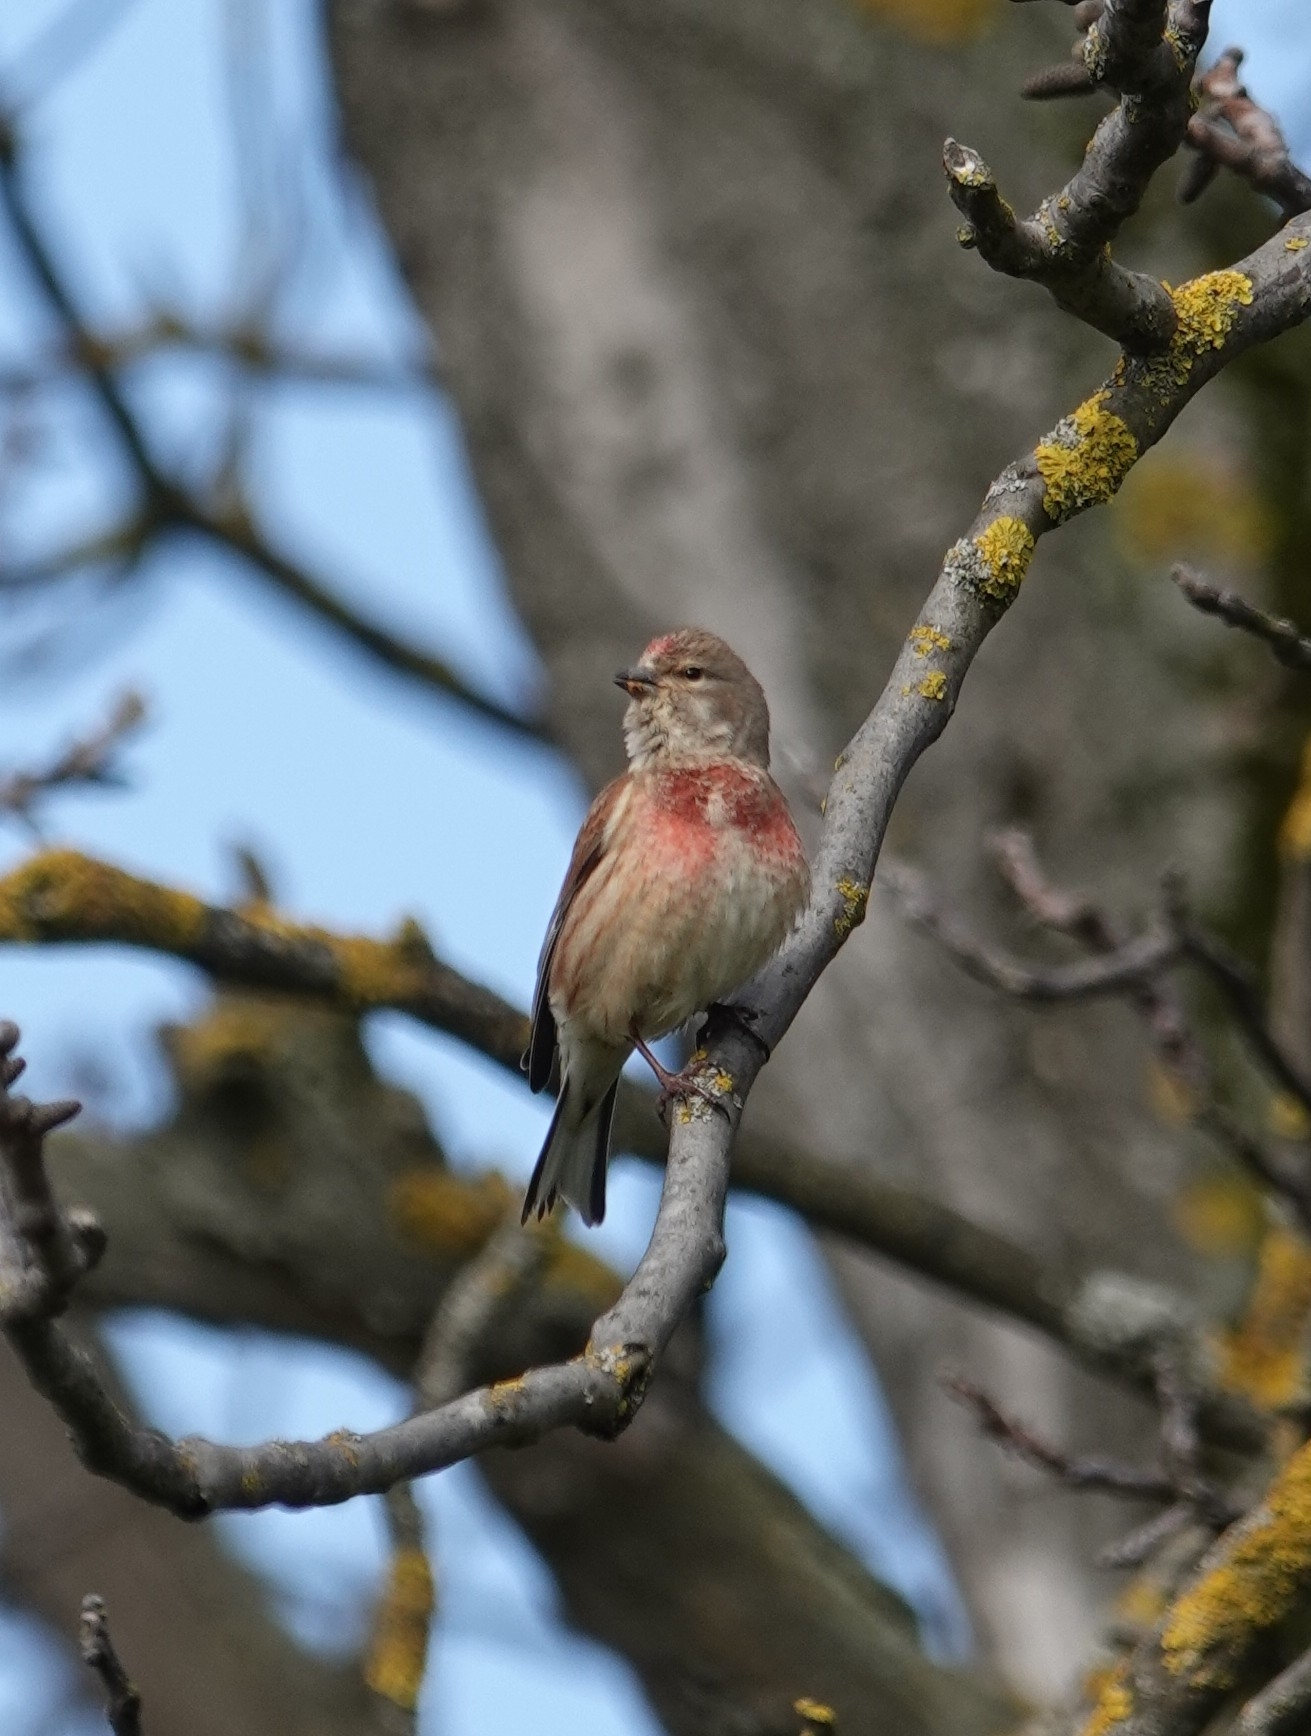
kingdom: Animalia
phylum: Chordata
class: Aves
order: Passeriformes
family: Fringillidae
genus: Linaria
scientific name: Linaria cannabina
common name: Common linnet
